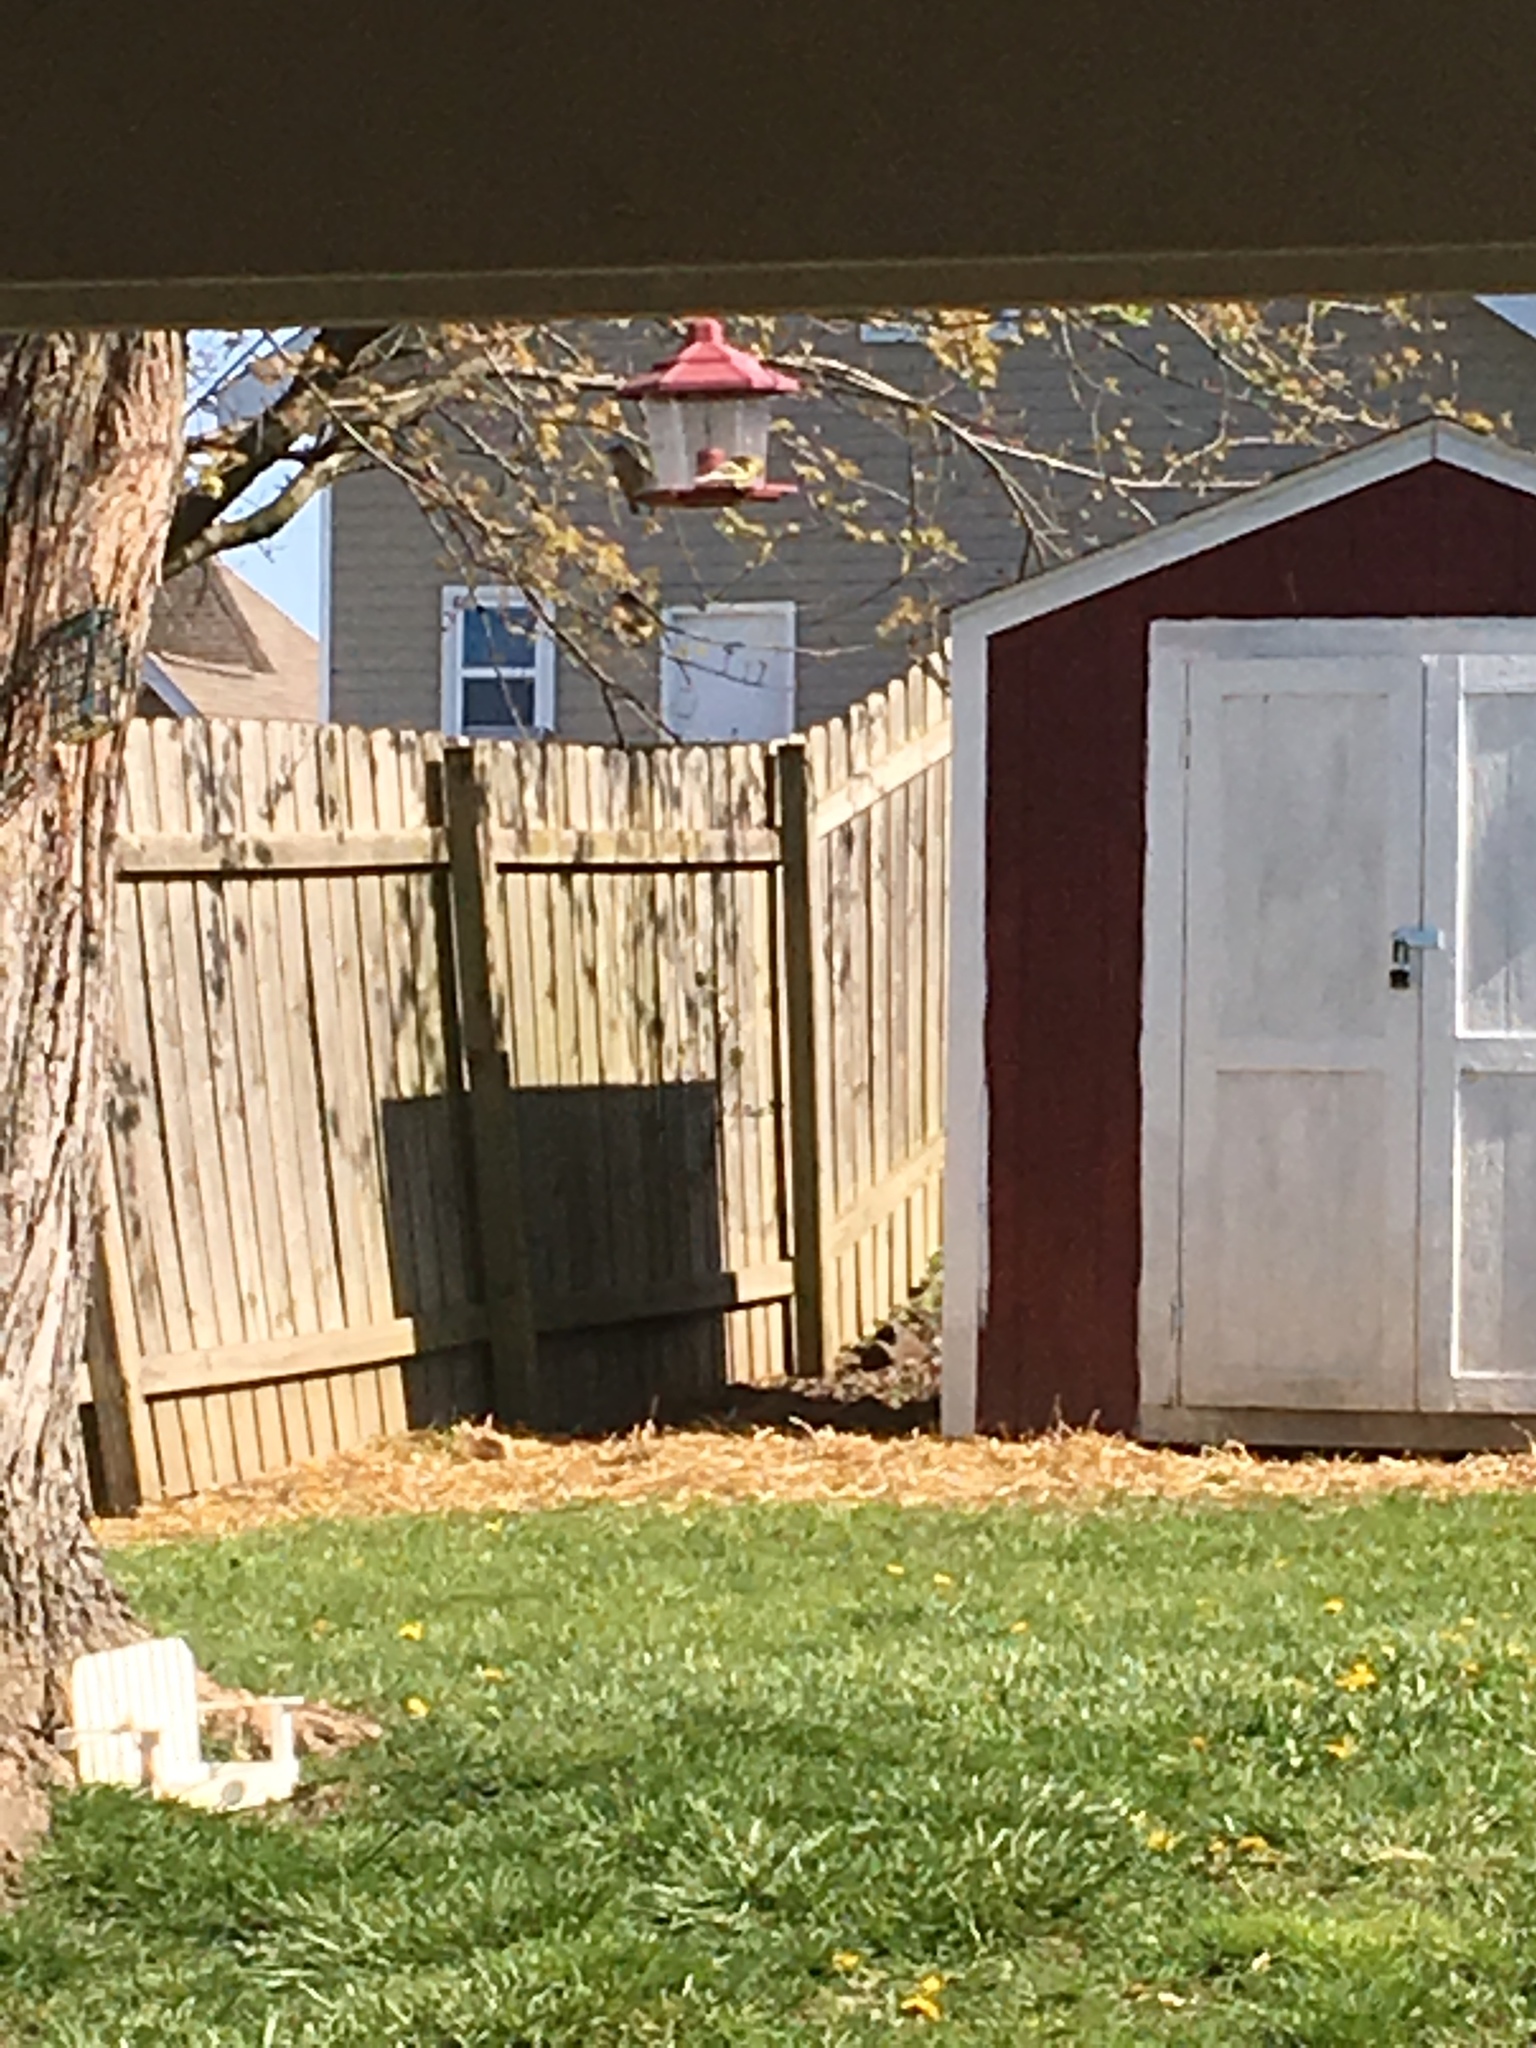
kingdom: Animalia
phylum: Chordata
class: Aves
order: Passeriformes
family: Fringillidae
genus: Spinus
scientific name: Spinus tristis
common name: American goldfinch
